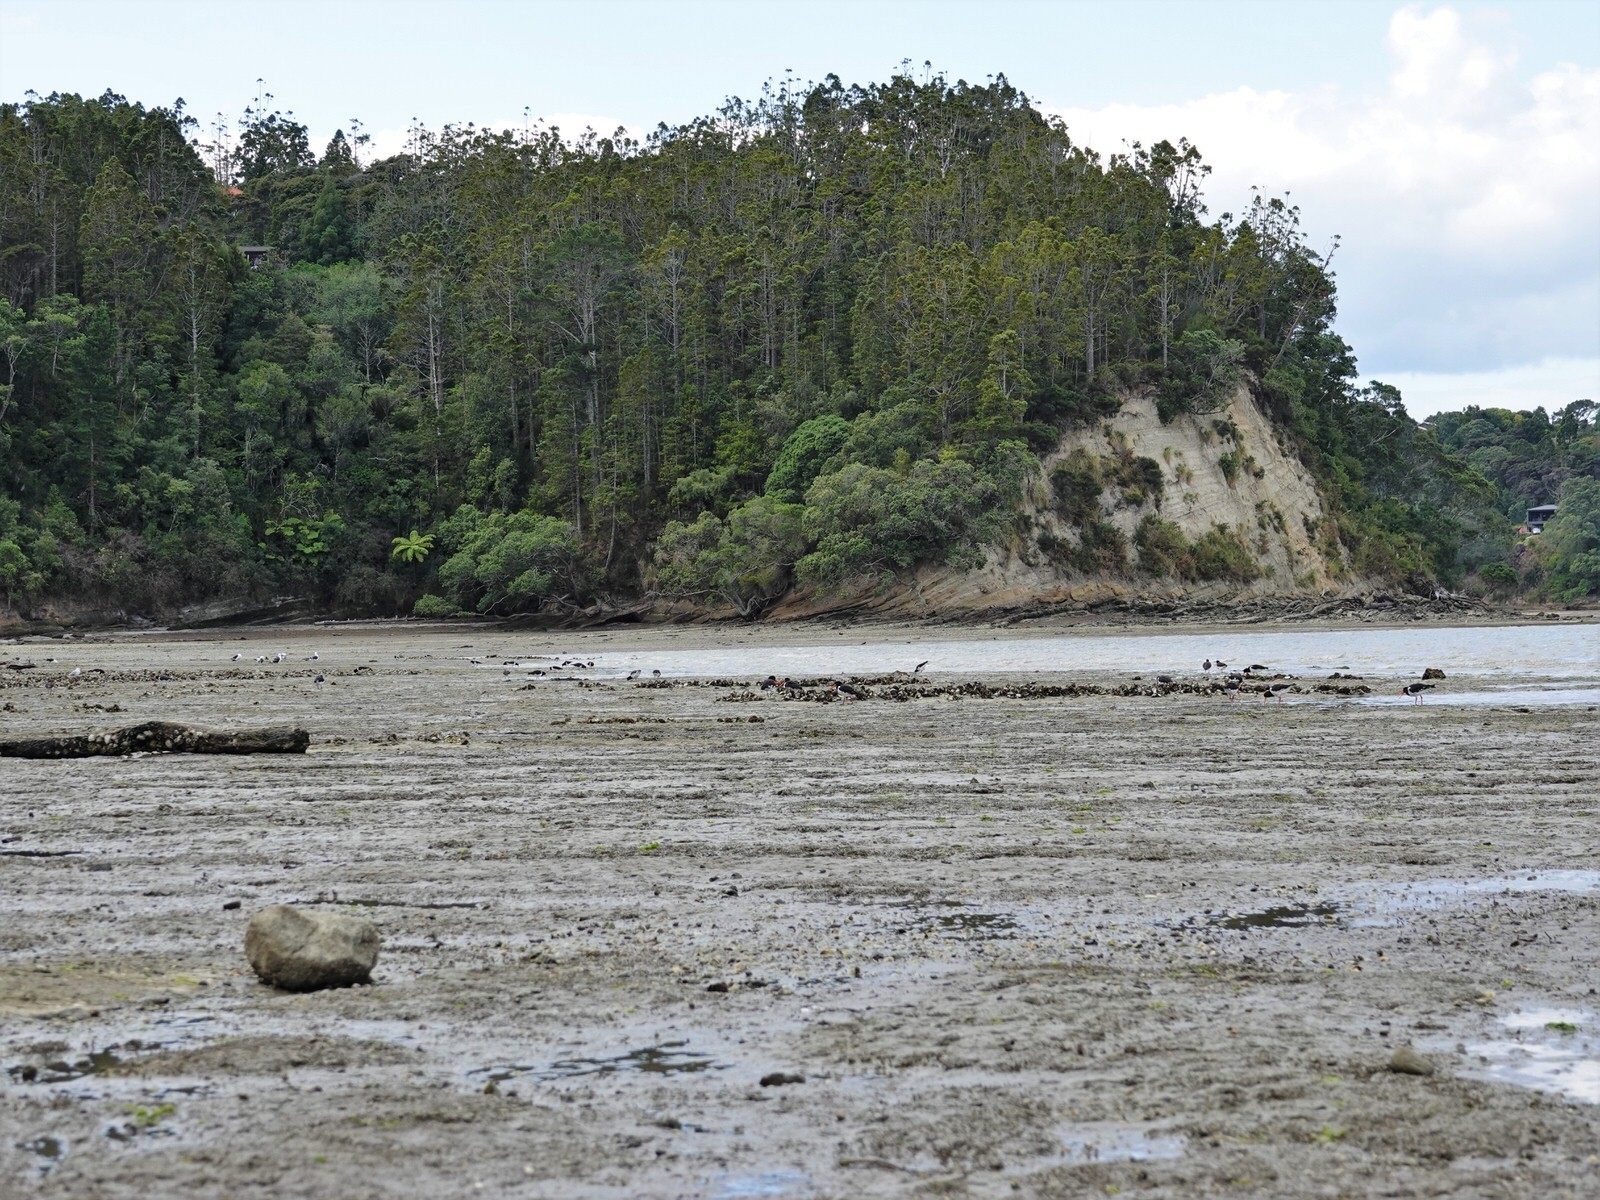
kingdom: Animalia
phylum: Chordata
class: Aves
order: Charadriiformes
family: Haematopodidae
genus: Haematopus
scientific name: Haematopus finschi
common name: South island oystercatcher
